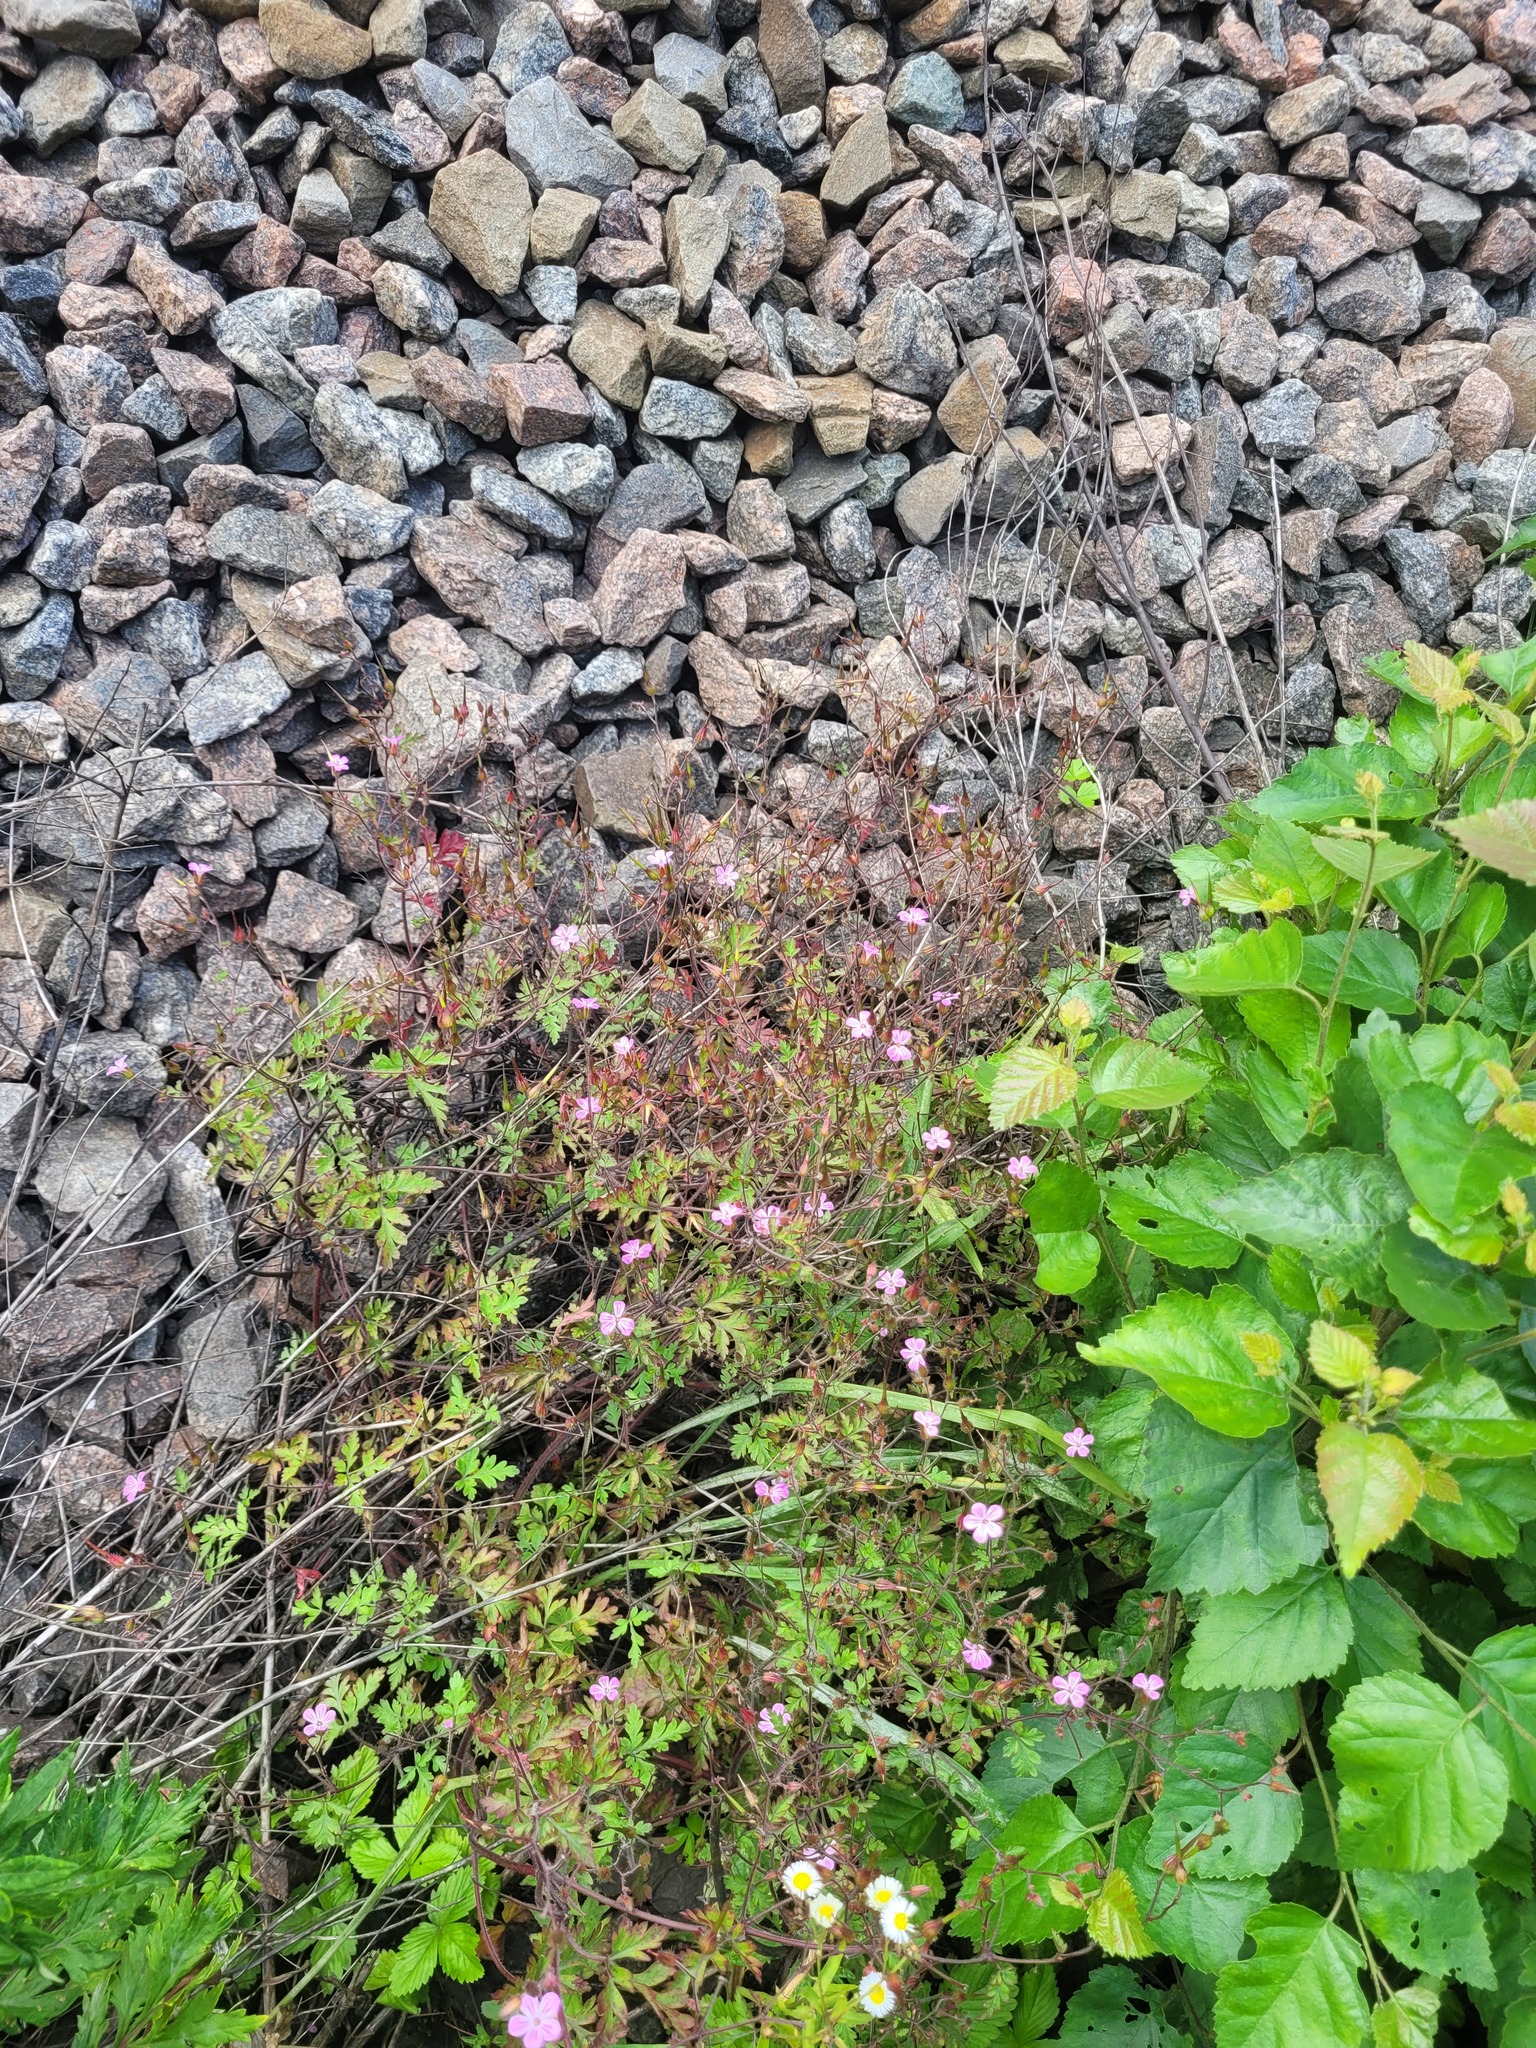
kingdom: Plantae
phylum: Tracheophyta
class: Magnoliopsida
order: Geraniales
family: Geraniaceae
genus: Geranium
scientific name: Geranium robertianum
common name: Herb-robert
